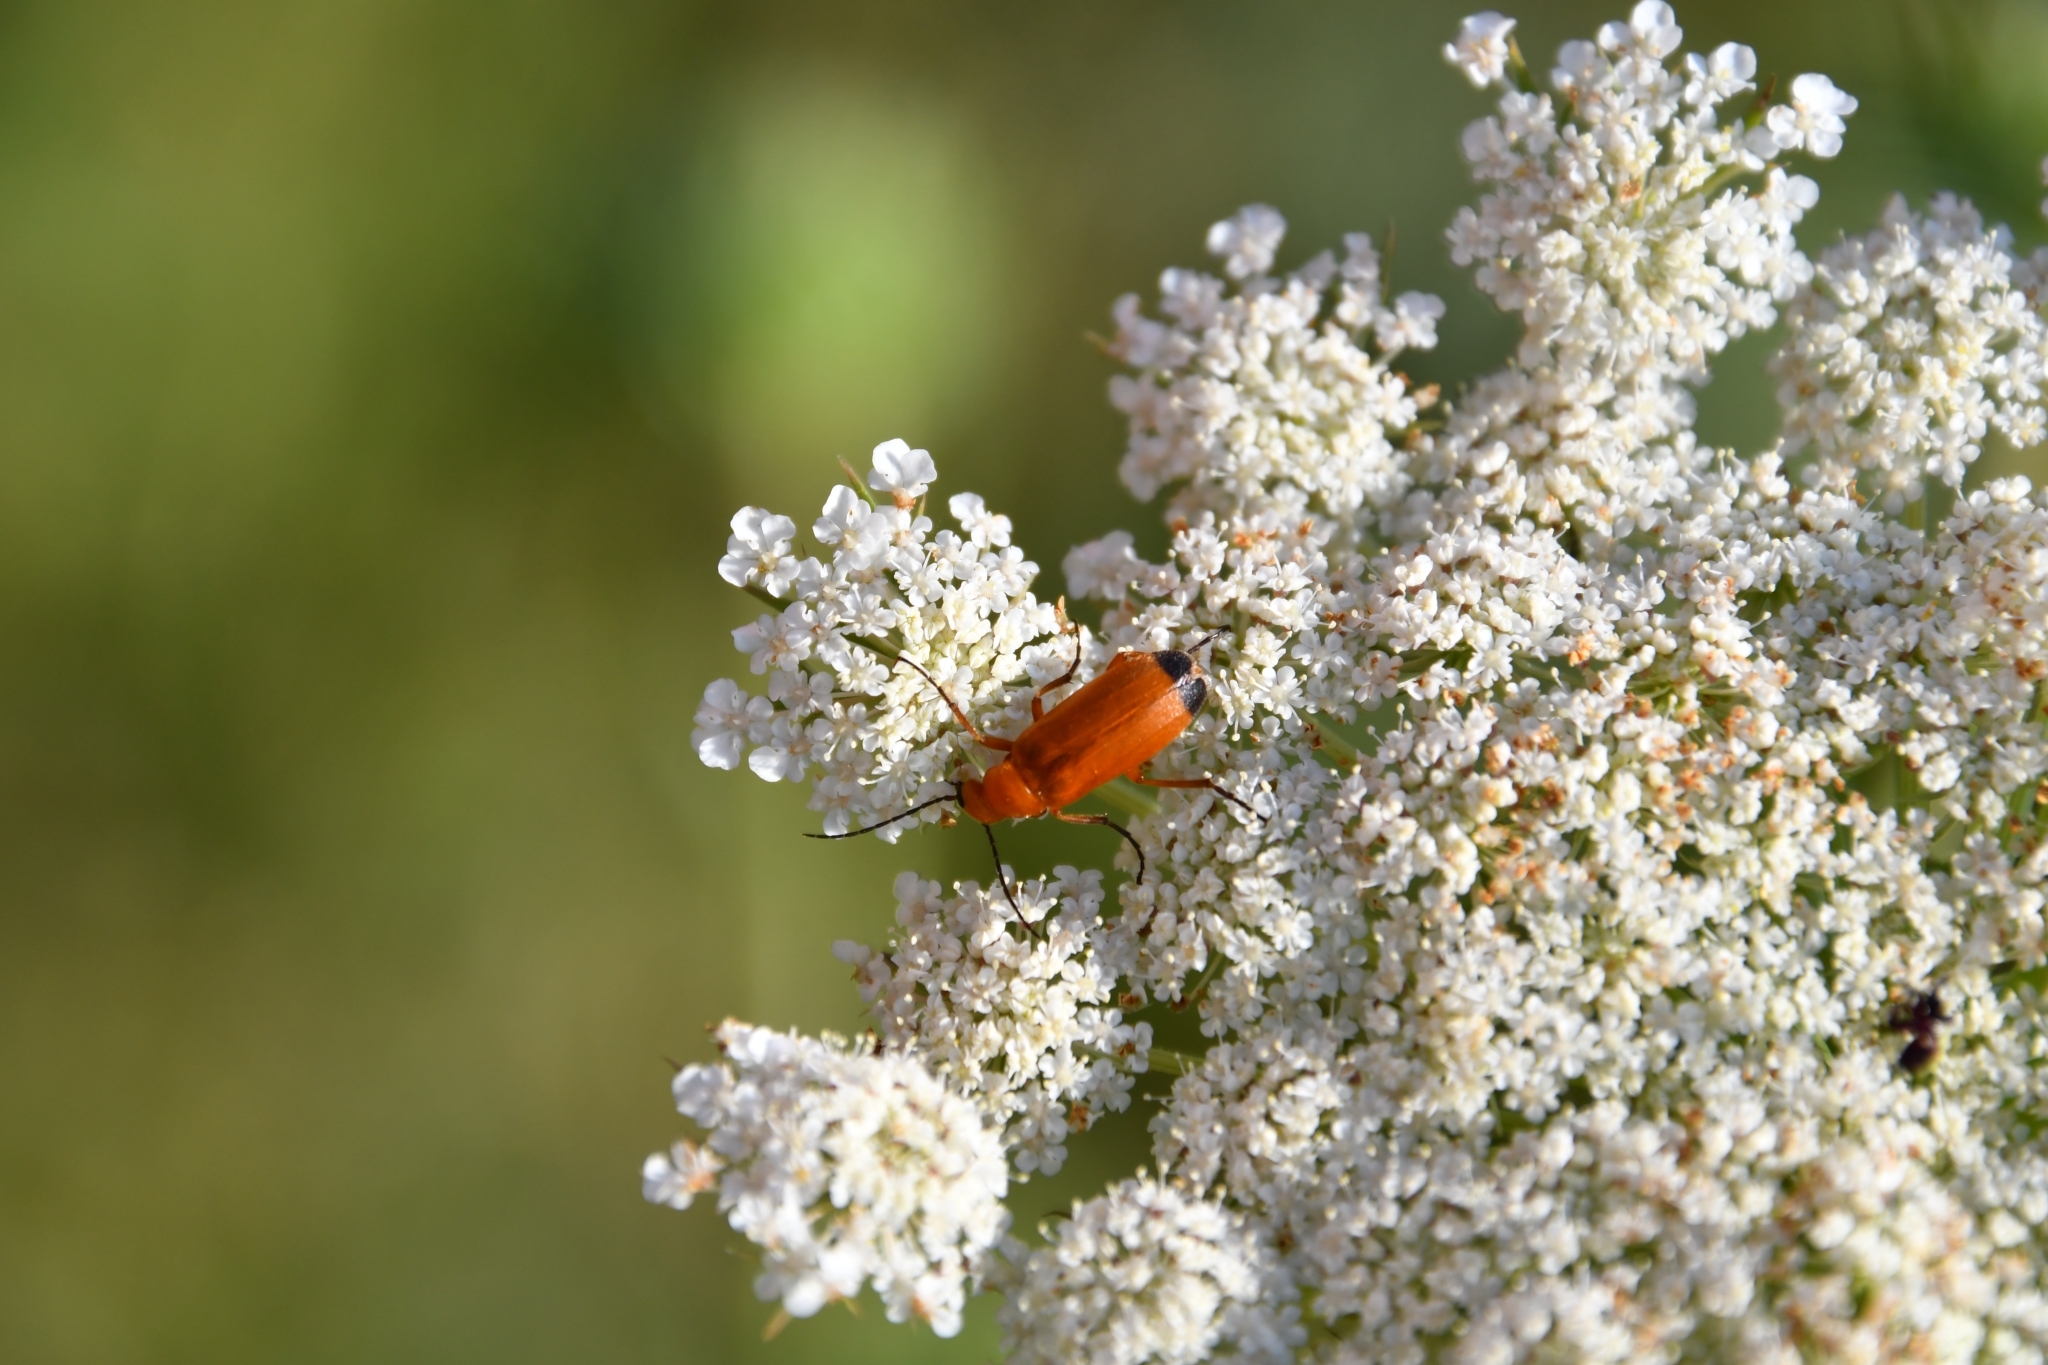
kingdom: Animalia
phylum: Arthropoda
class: Insecta
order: Coleoptera
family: Meloidae
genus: Zonitis
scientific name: Zonitis flava
